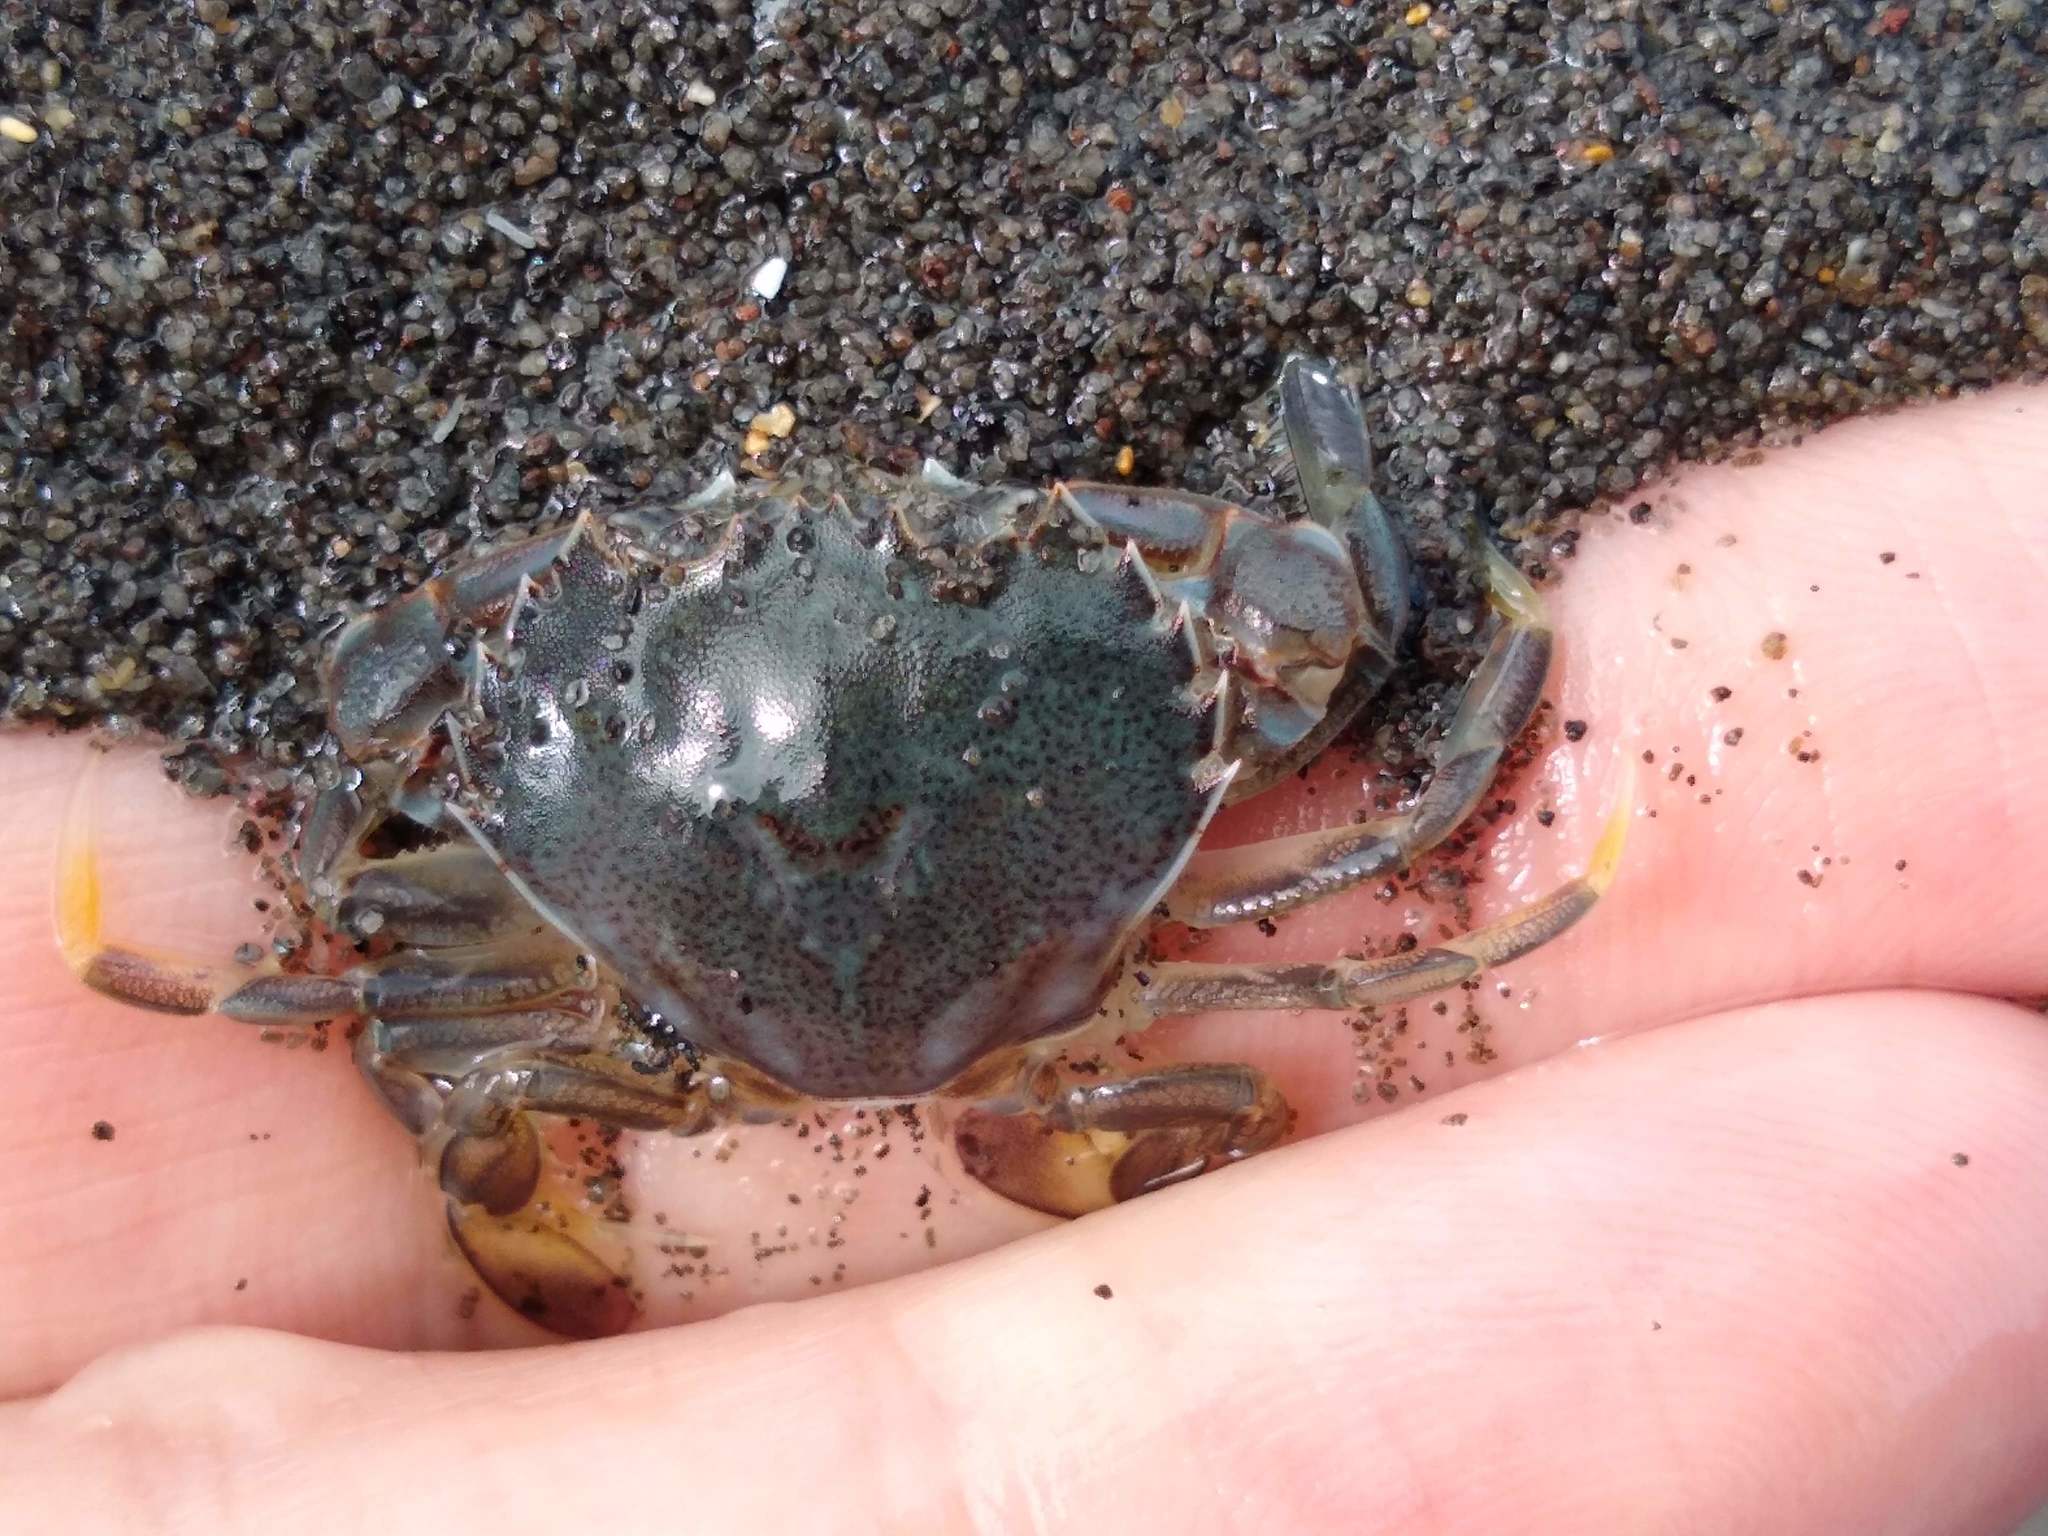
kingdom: Animalia
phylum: Arthropoda
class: Malacostraca
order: Decapoda
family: Ovalipidae
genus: Ovalipes
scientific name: Ovalipes catharus
